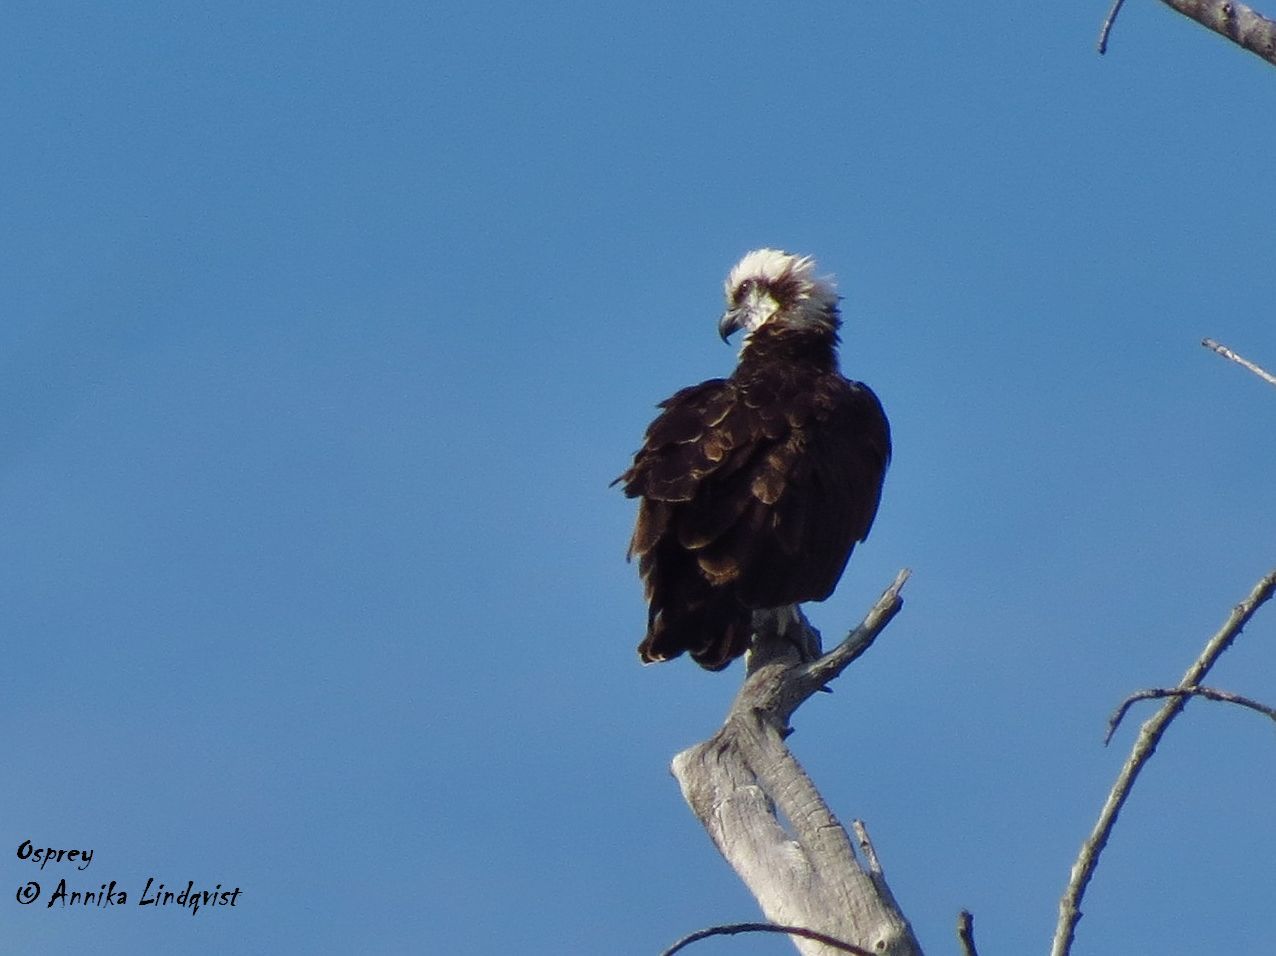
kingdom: Animalia
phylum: Chordata
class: Aves
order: Accipitriformes
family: Pandionidae
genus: Pandion
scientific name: Pandion haliaetus
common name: Osprey
